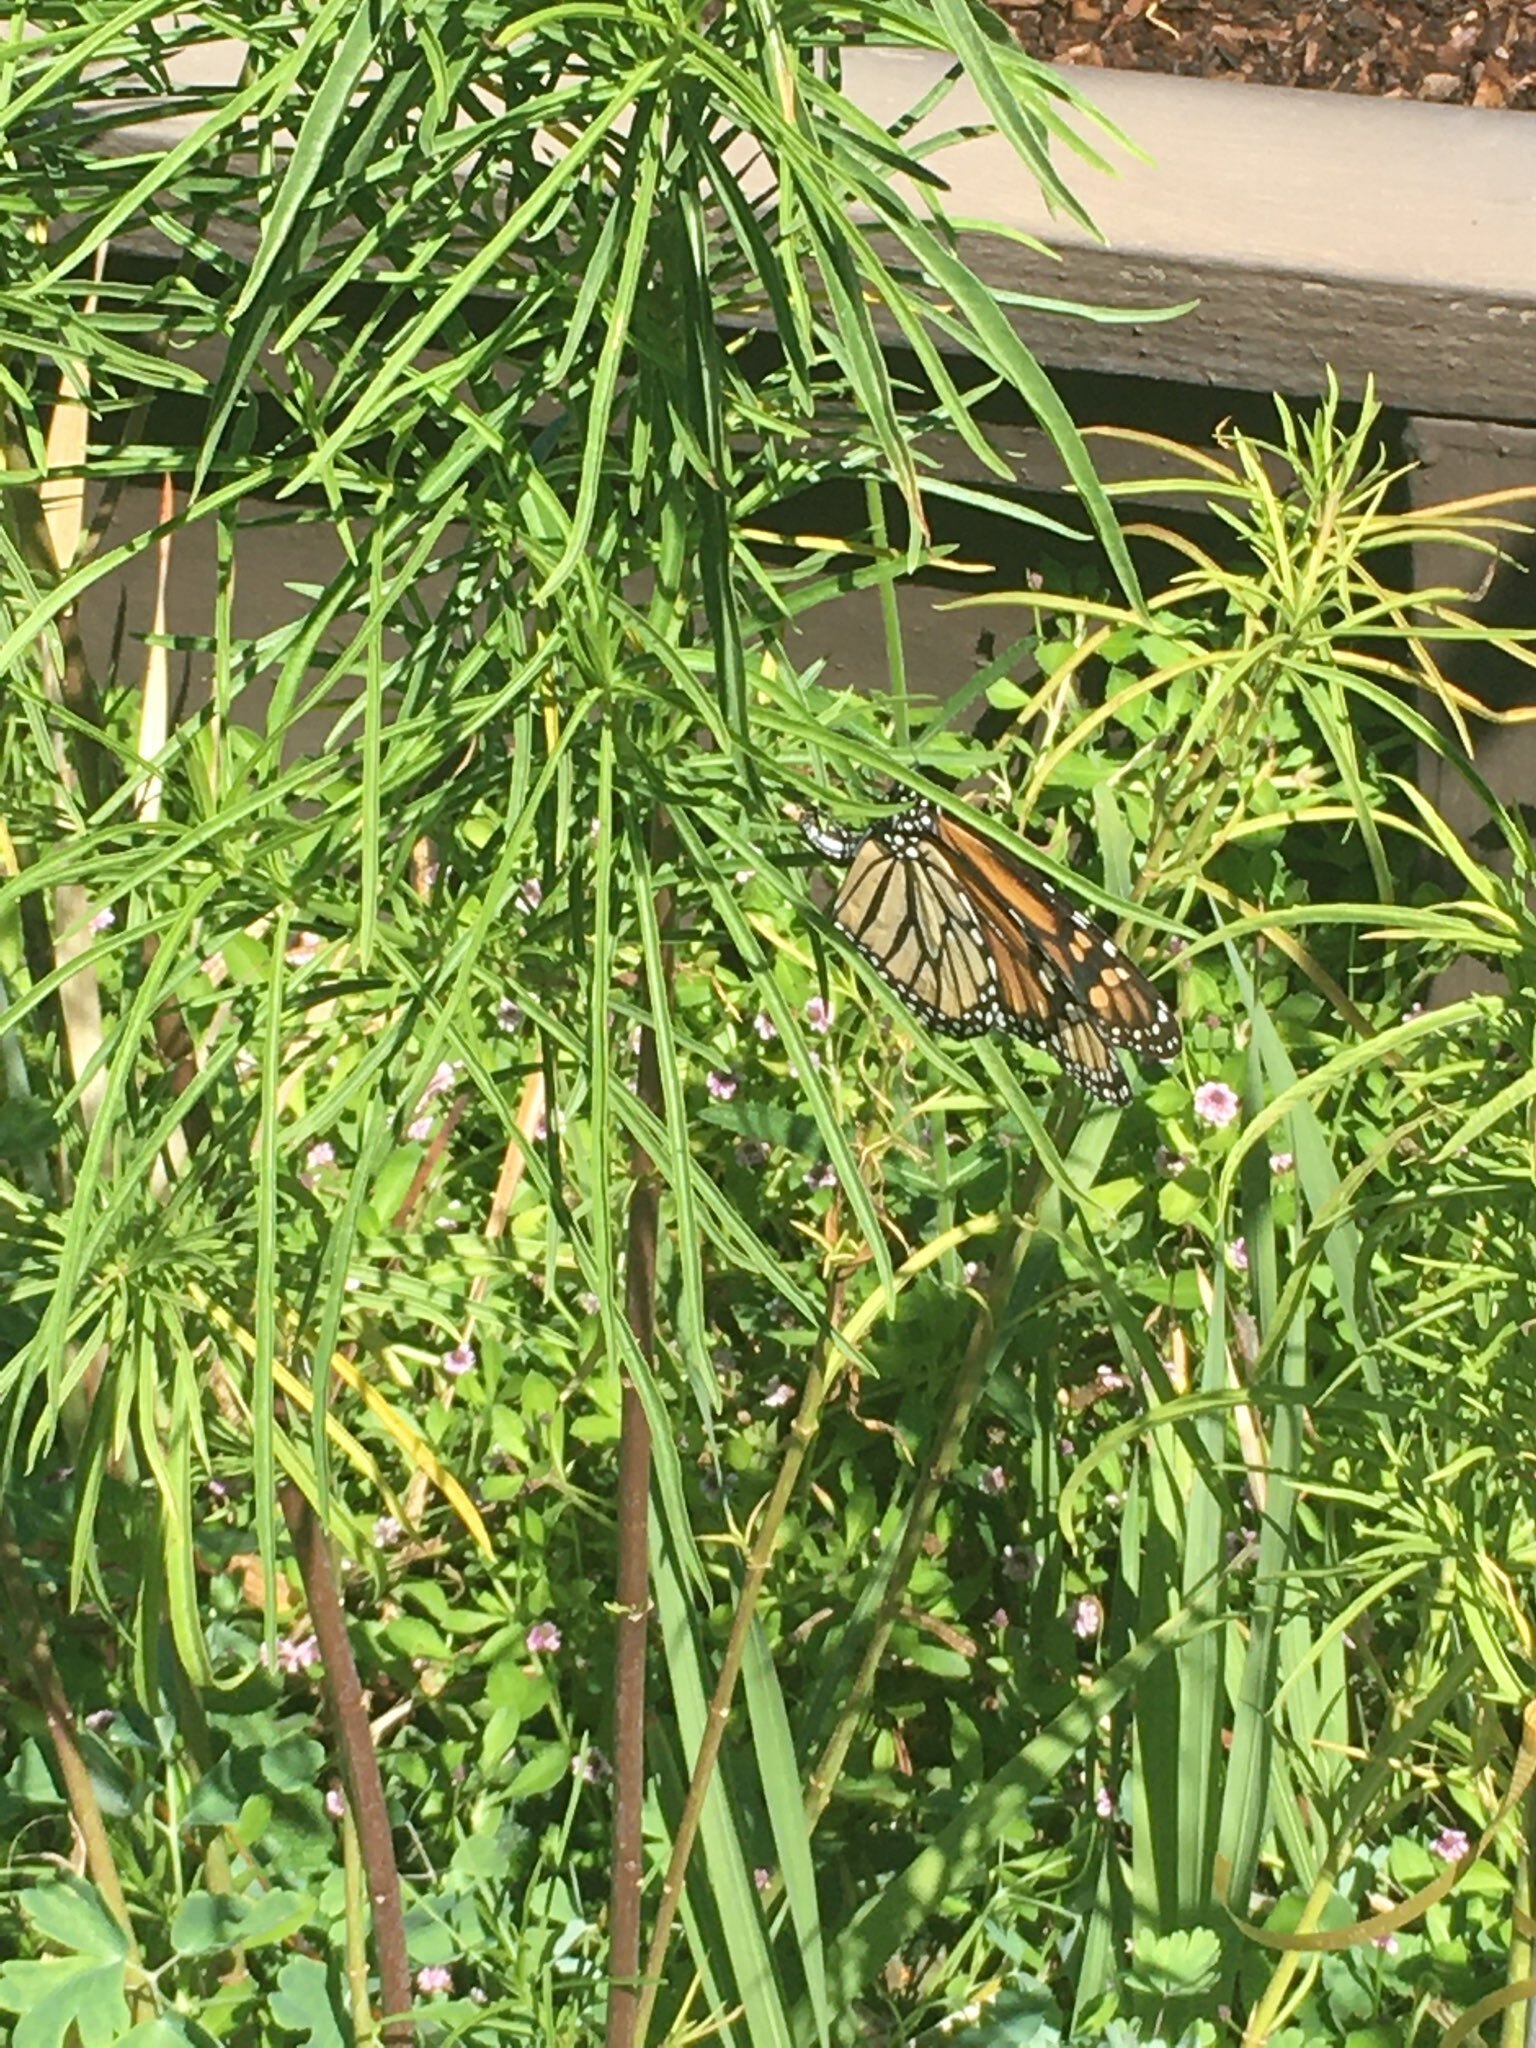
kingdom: Animalia
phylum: Arthropoda
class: Insecta
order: Lepidoptera
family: Nymphalidae
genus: Danaus
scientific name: Danaus plexippus
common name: Monarch
